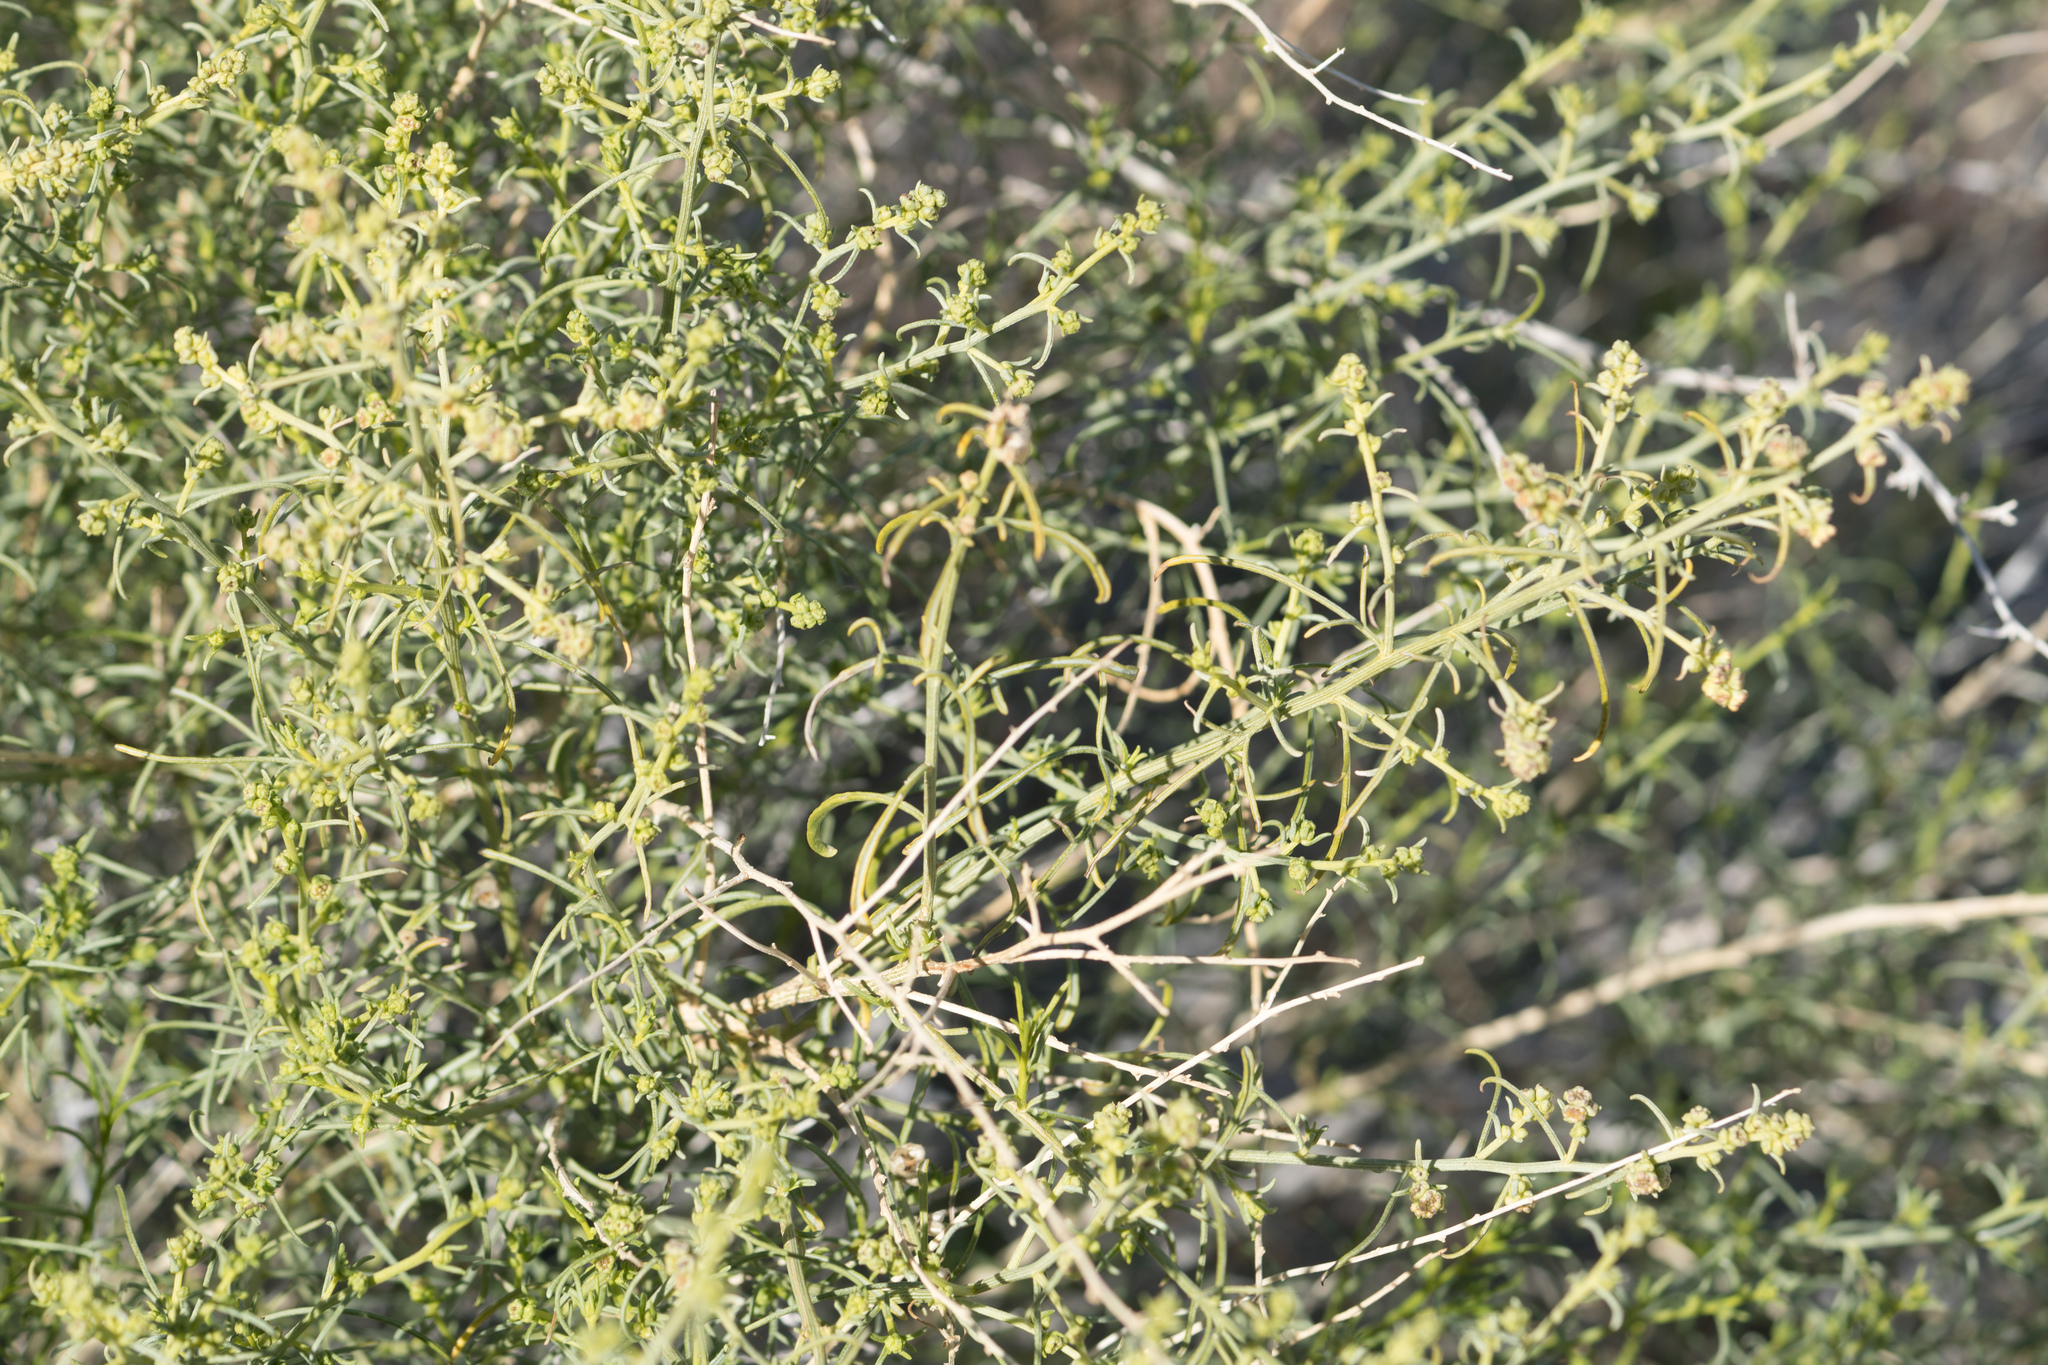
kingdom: Plantae
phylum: Tracheophyta
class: Magnoliopsida
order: Asterales
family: Asteraceae
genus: Ambrosia
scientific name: Ambrosia salsola
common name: Burrobrush
